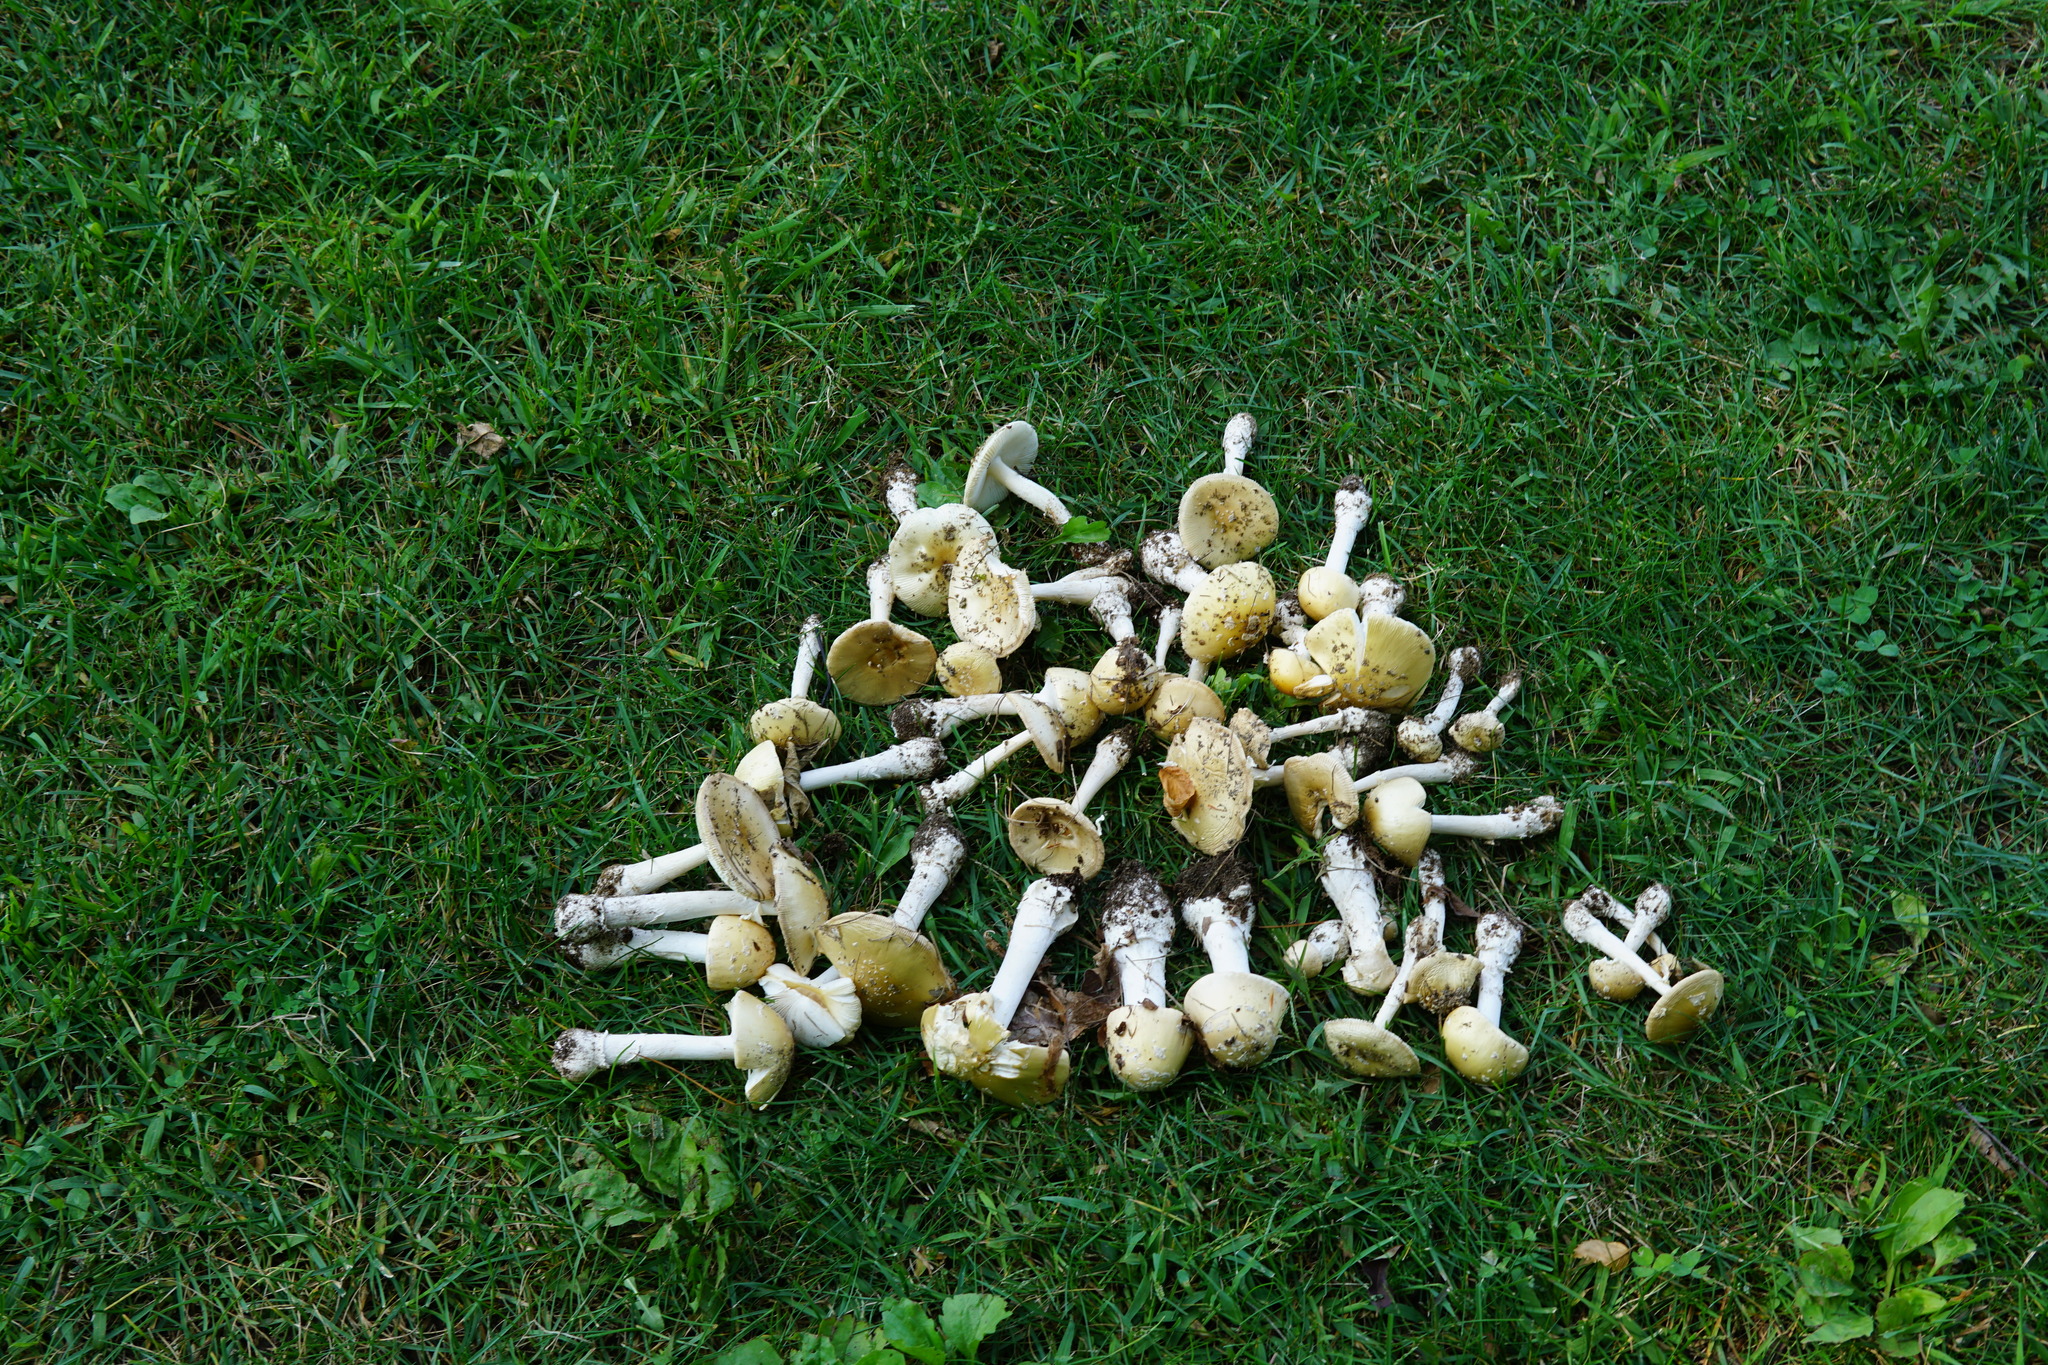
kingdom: Fungi
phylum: Basidiomycota
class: Agaricomycetes
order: Agaricales
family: Amanitaceae
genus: Amanita
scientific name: Amanita russuloides
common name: Russula-like amanita
